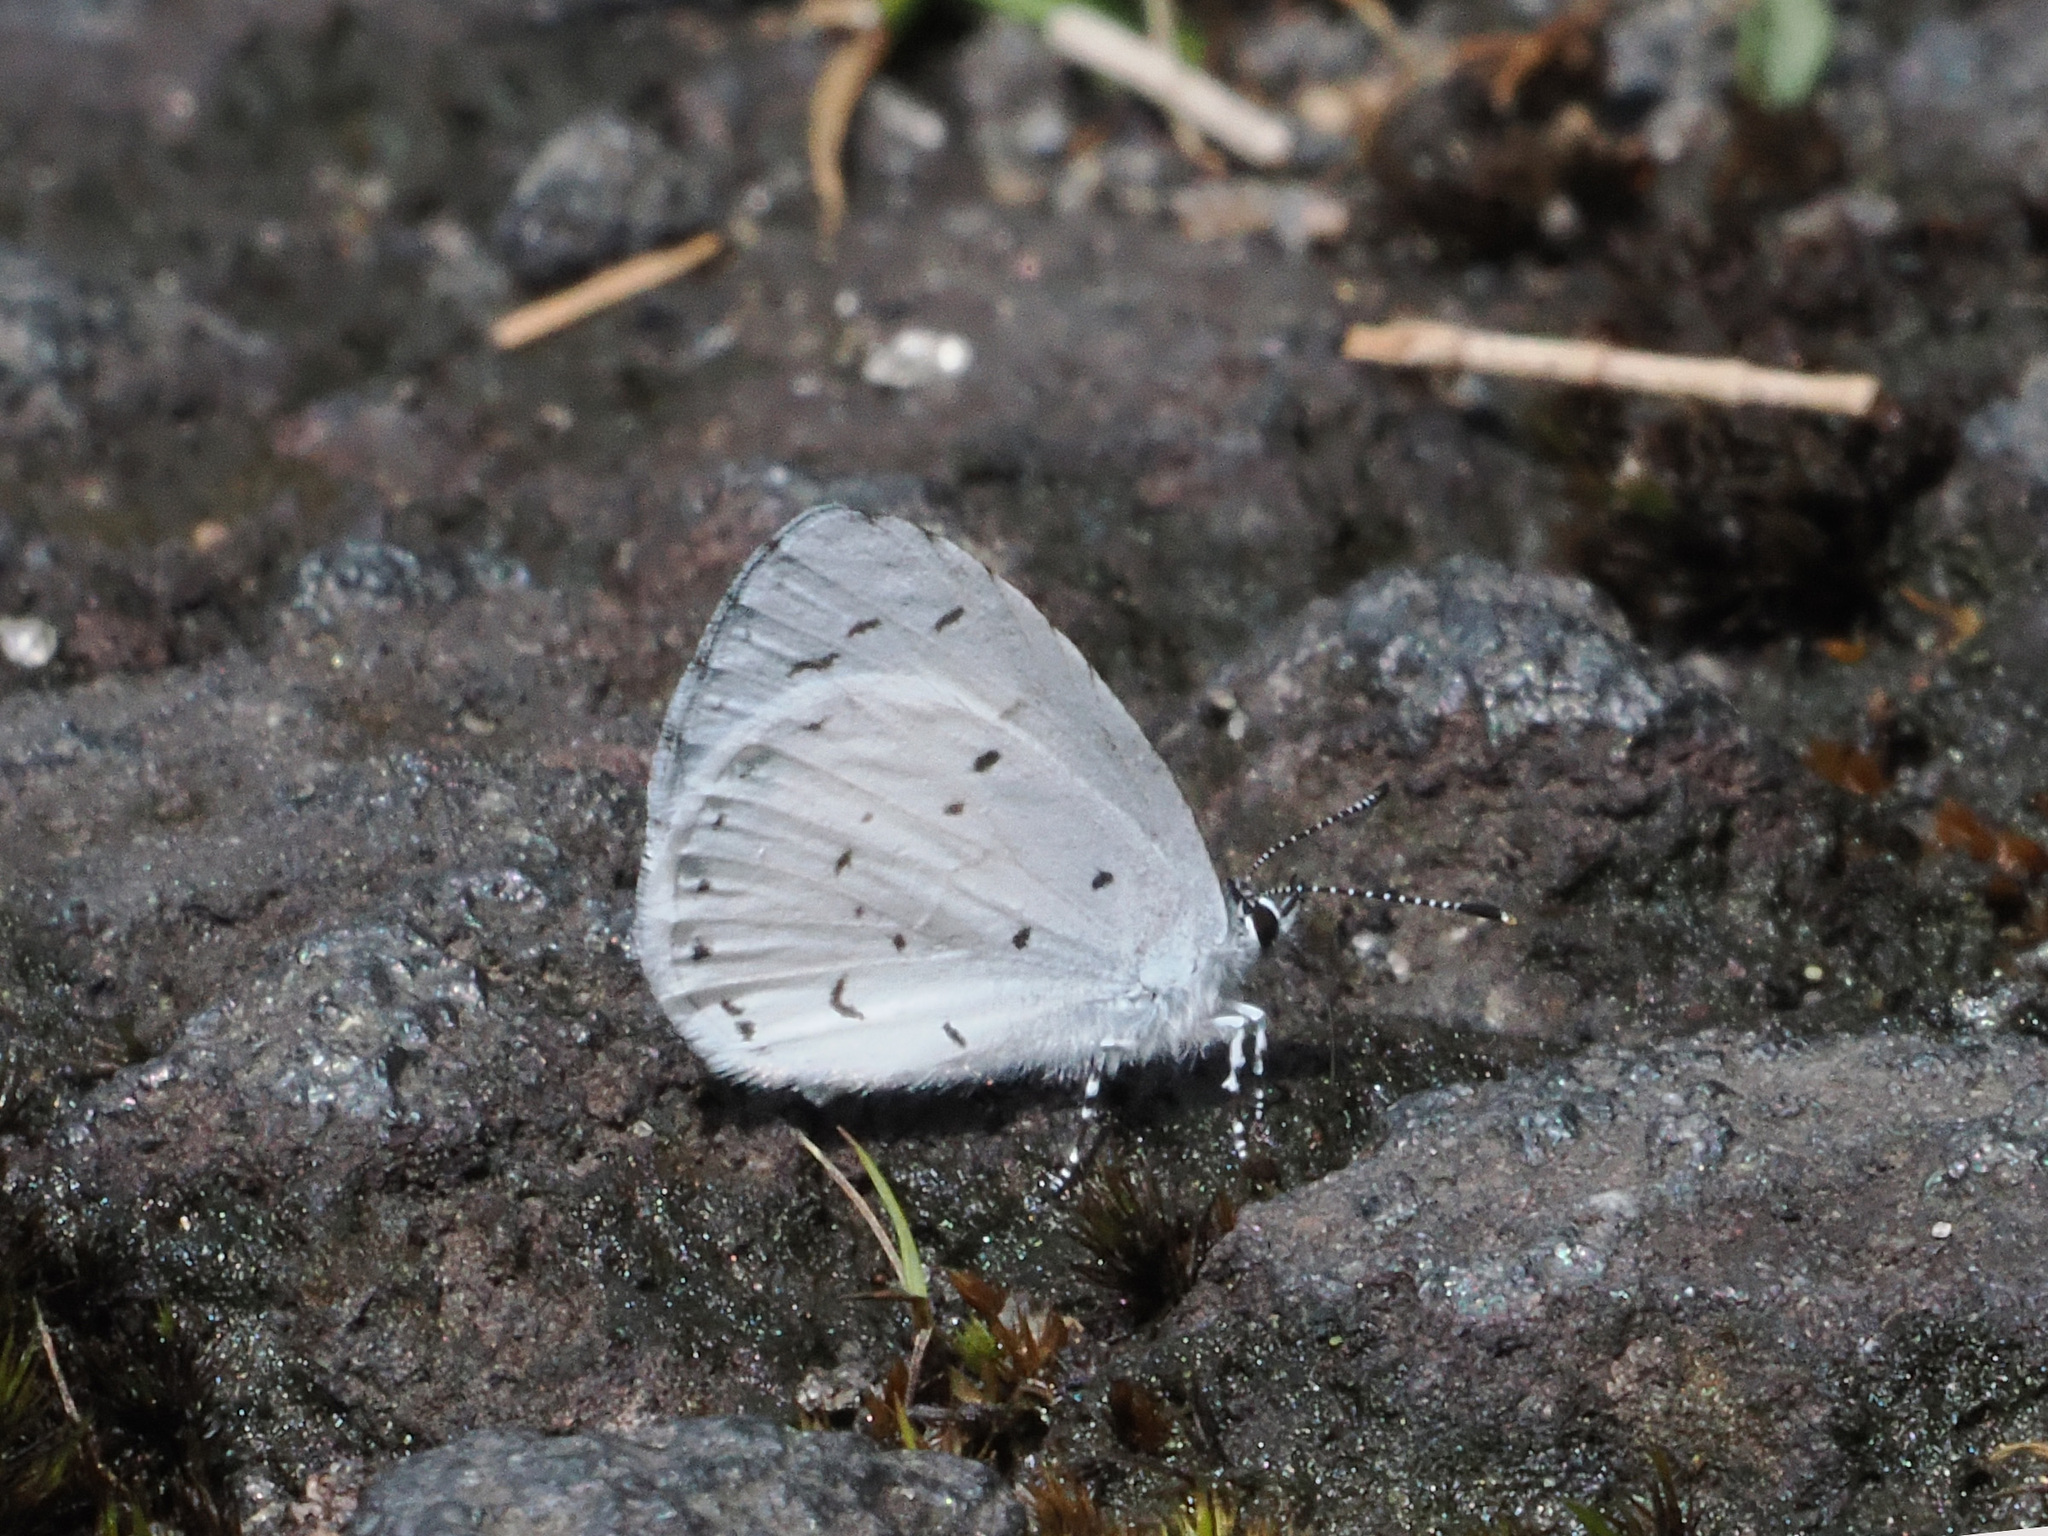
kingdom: Animalia
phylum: Arthropoda
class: Insecta
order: Lepidoptera
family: Lycaenidae
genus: Udara
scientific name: Udara akasa
